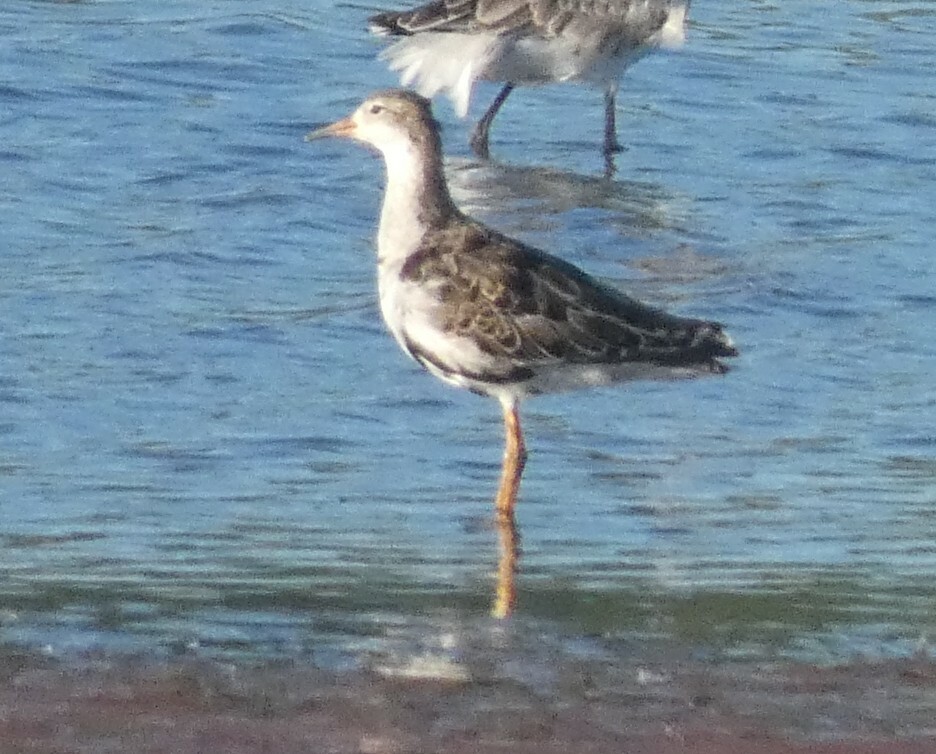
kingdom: Animalia
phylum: Chordata
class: Aves
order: Charadriiformes
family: Scolopacidae
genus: Calidris
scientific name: Calidris pugnax
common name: Ruff
